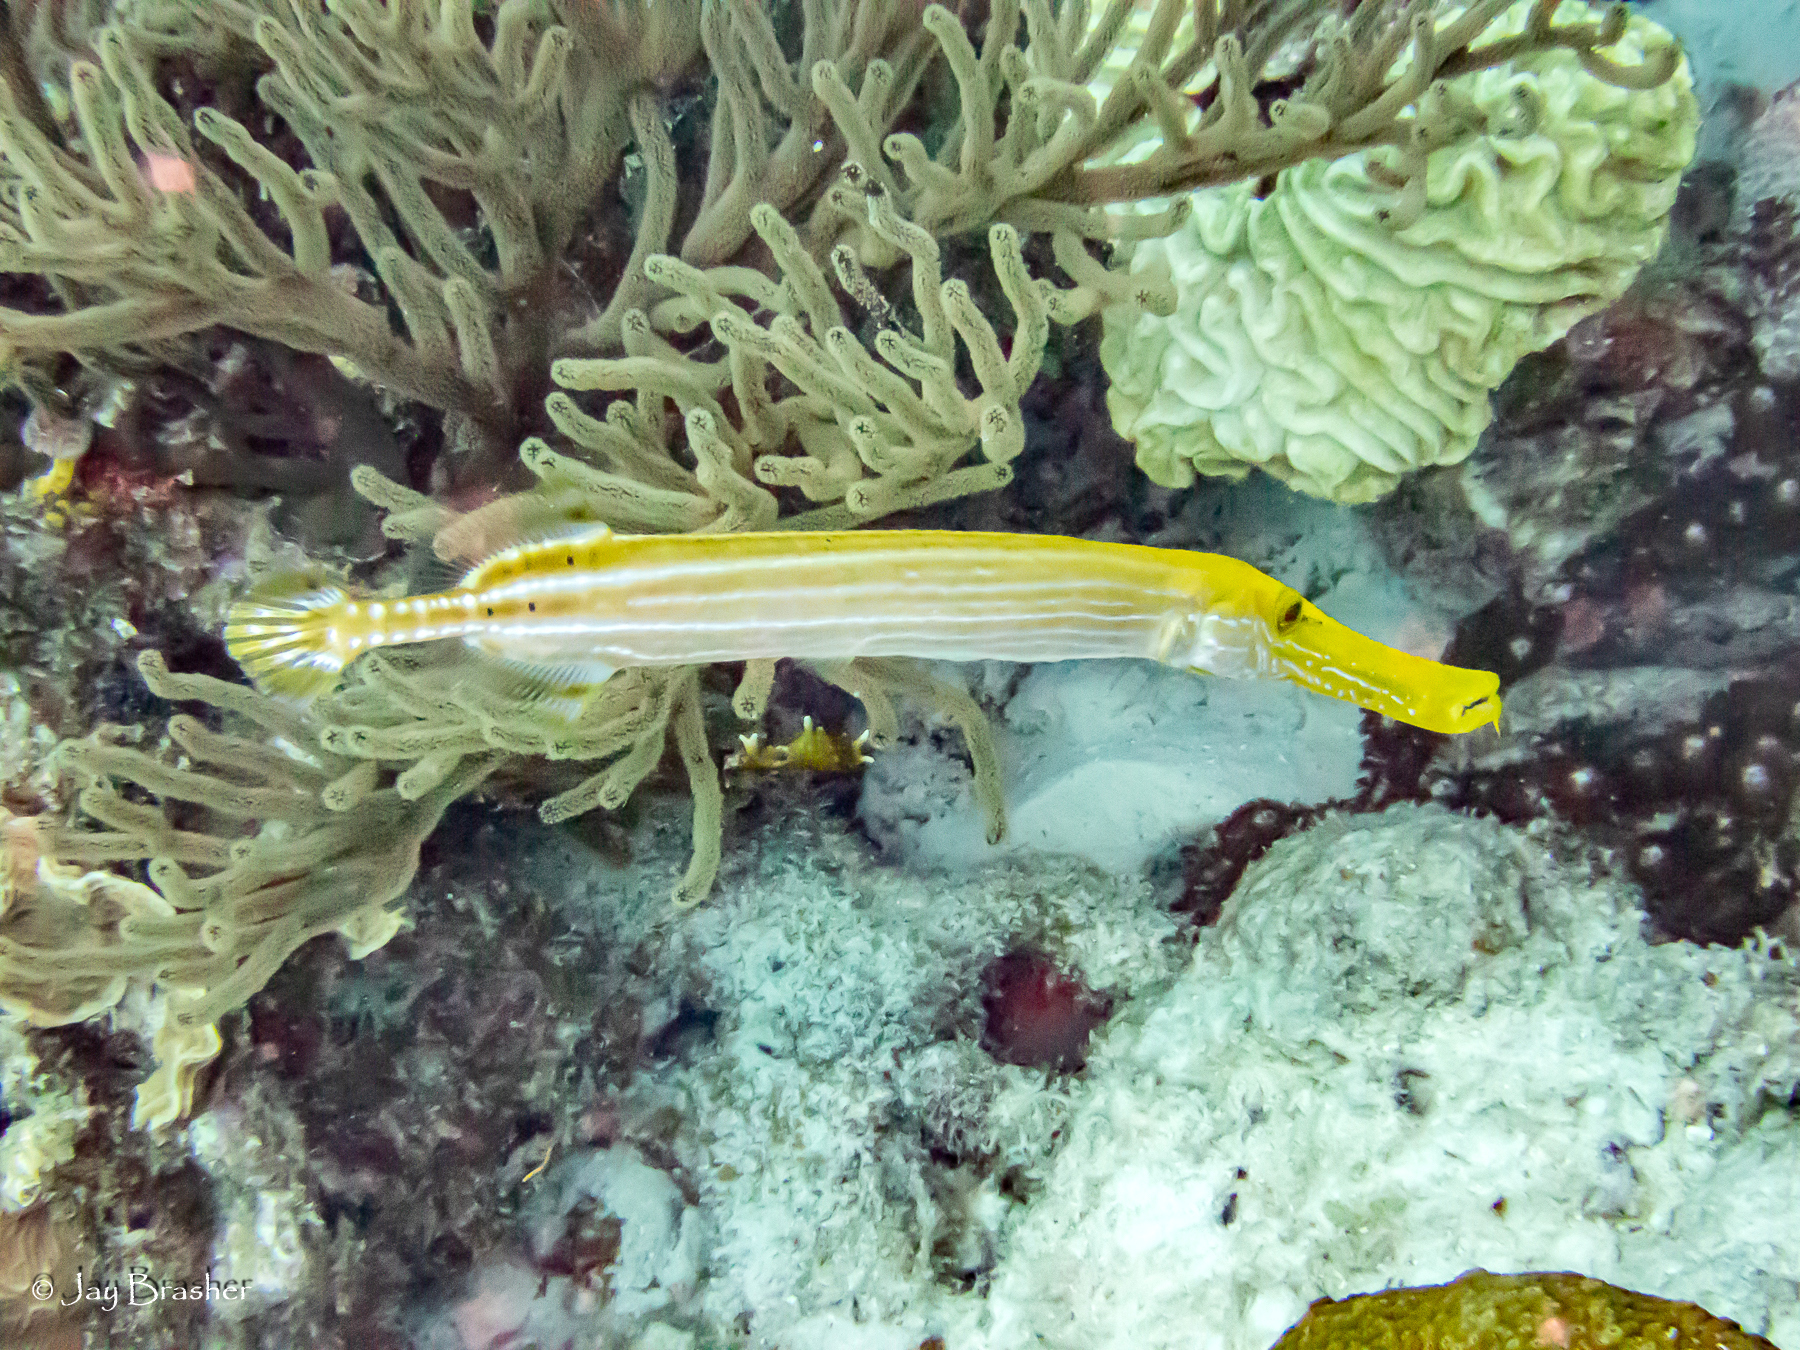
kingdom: Animalia
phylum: Chordata
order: Syngnathiformes
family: Aulostomidae
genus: Aulostomus
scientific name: Aulostomus maculatus
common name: West atlantic trumpetfish
